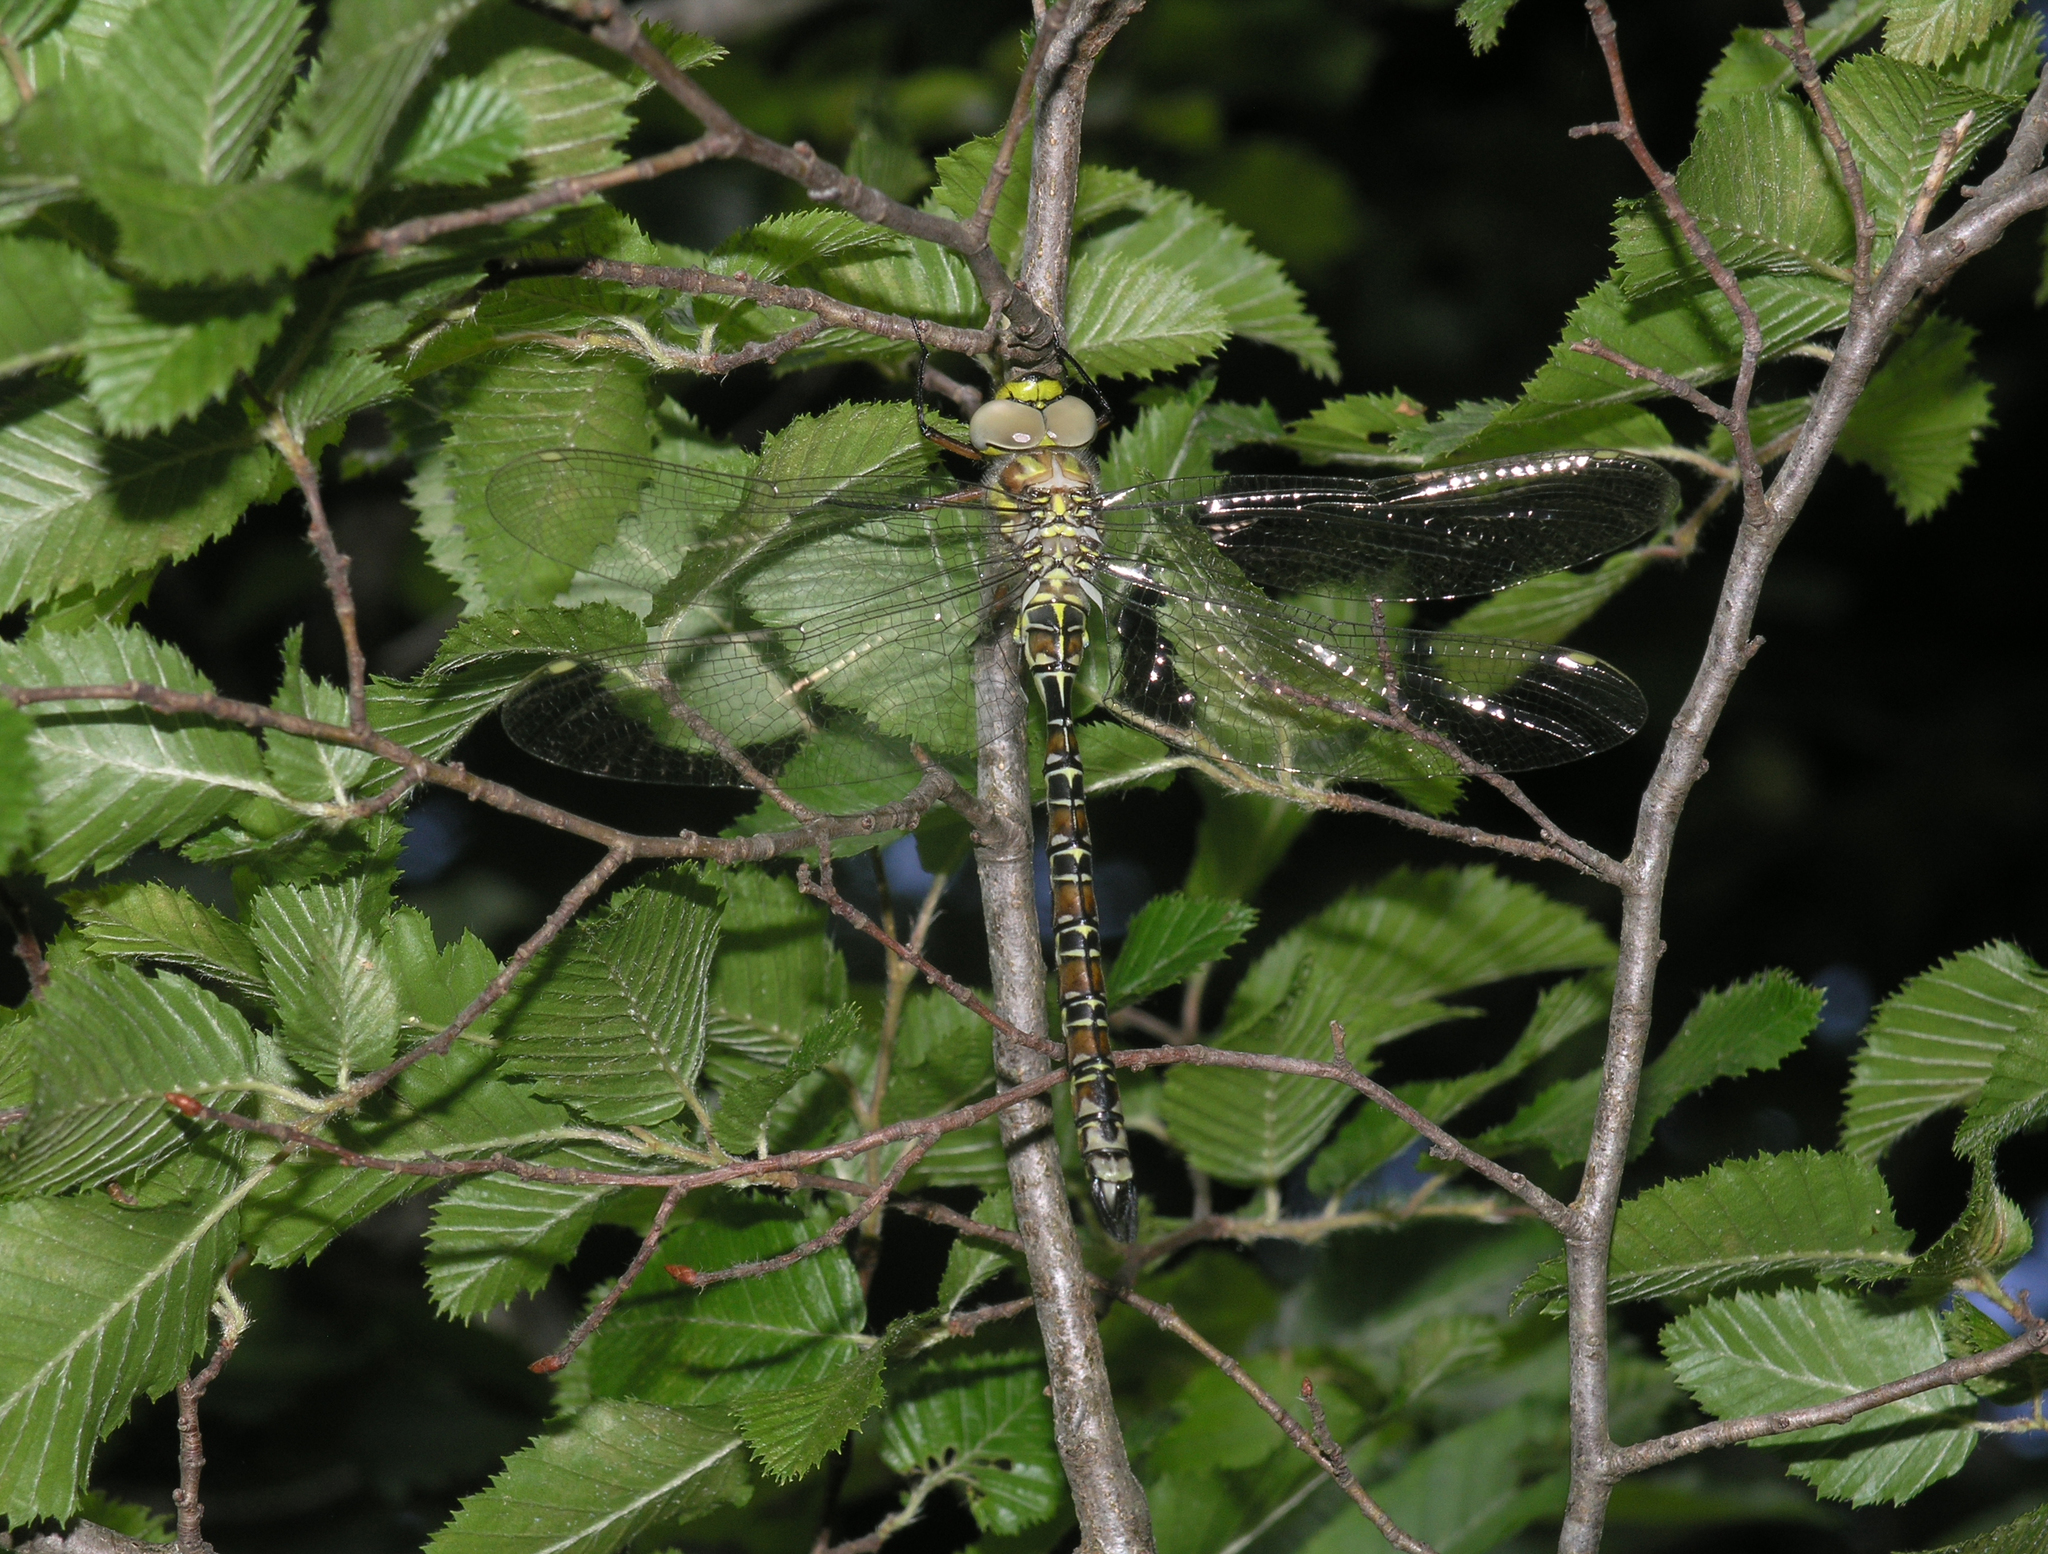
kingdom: Animalia
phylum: Arthropoda
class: Insecta
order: Odonata
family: Aeshnidae
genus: Caliaeschna
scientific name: Caliaeschna microstigma
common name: Eastern spectre
